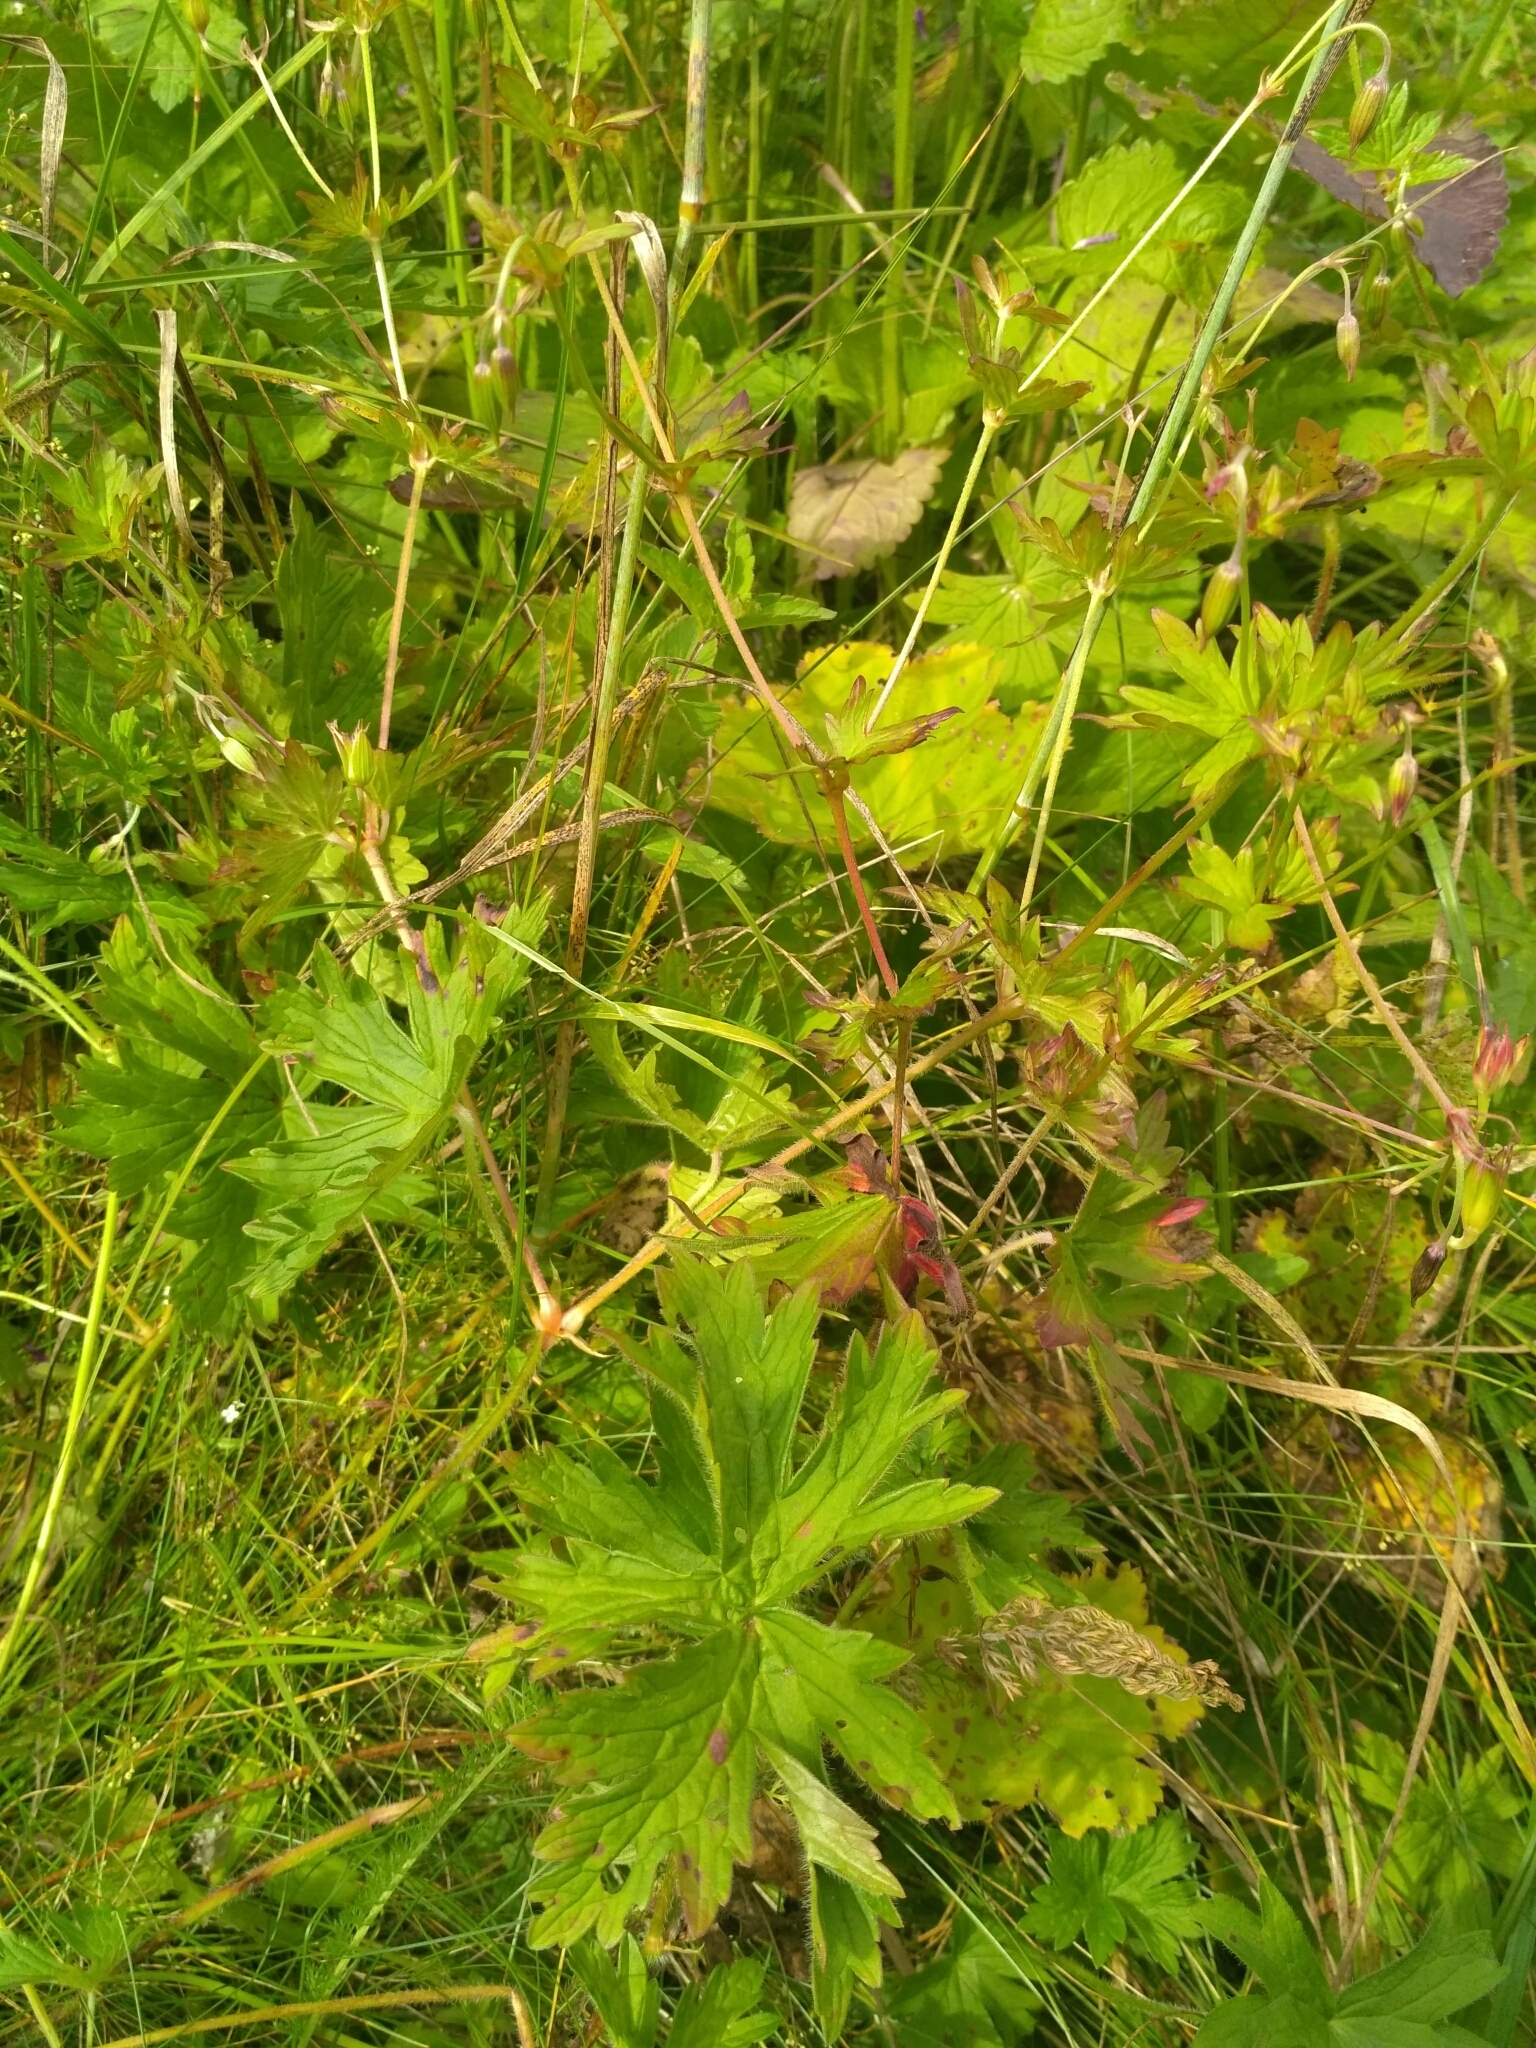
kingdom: Plantae
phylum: Tracheophyta
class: Magnoliopsida
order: Geraniales
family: Geraniaceae
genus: Geranium
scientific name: Geranium palustre
